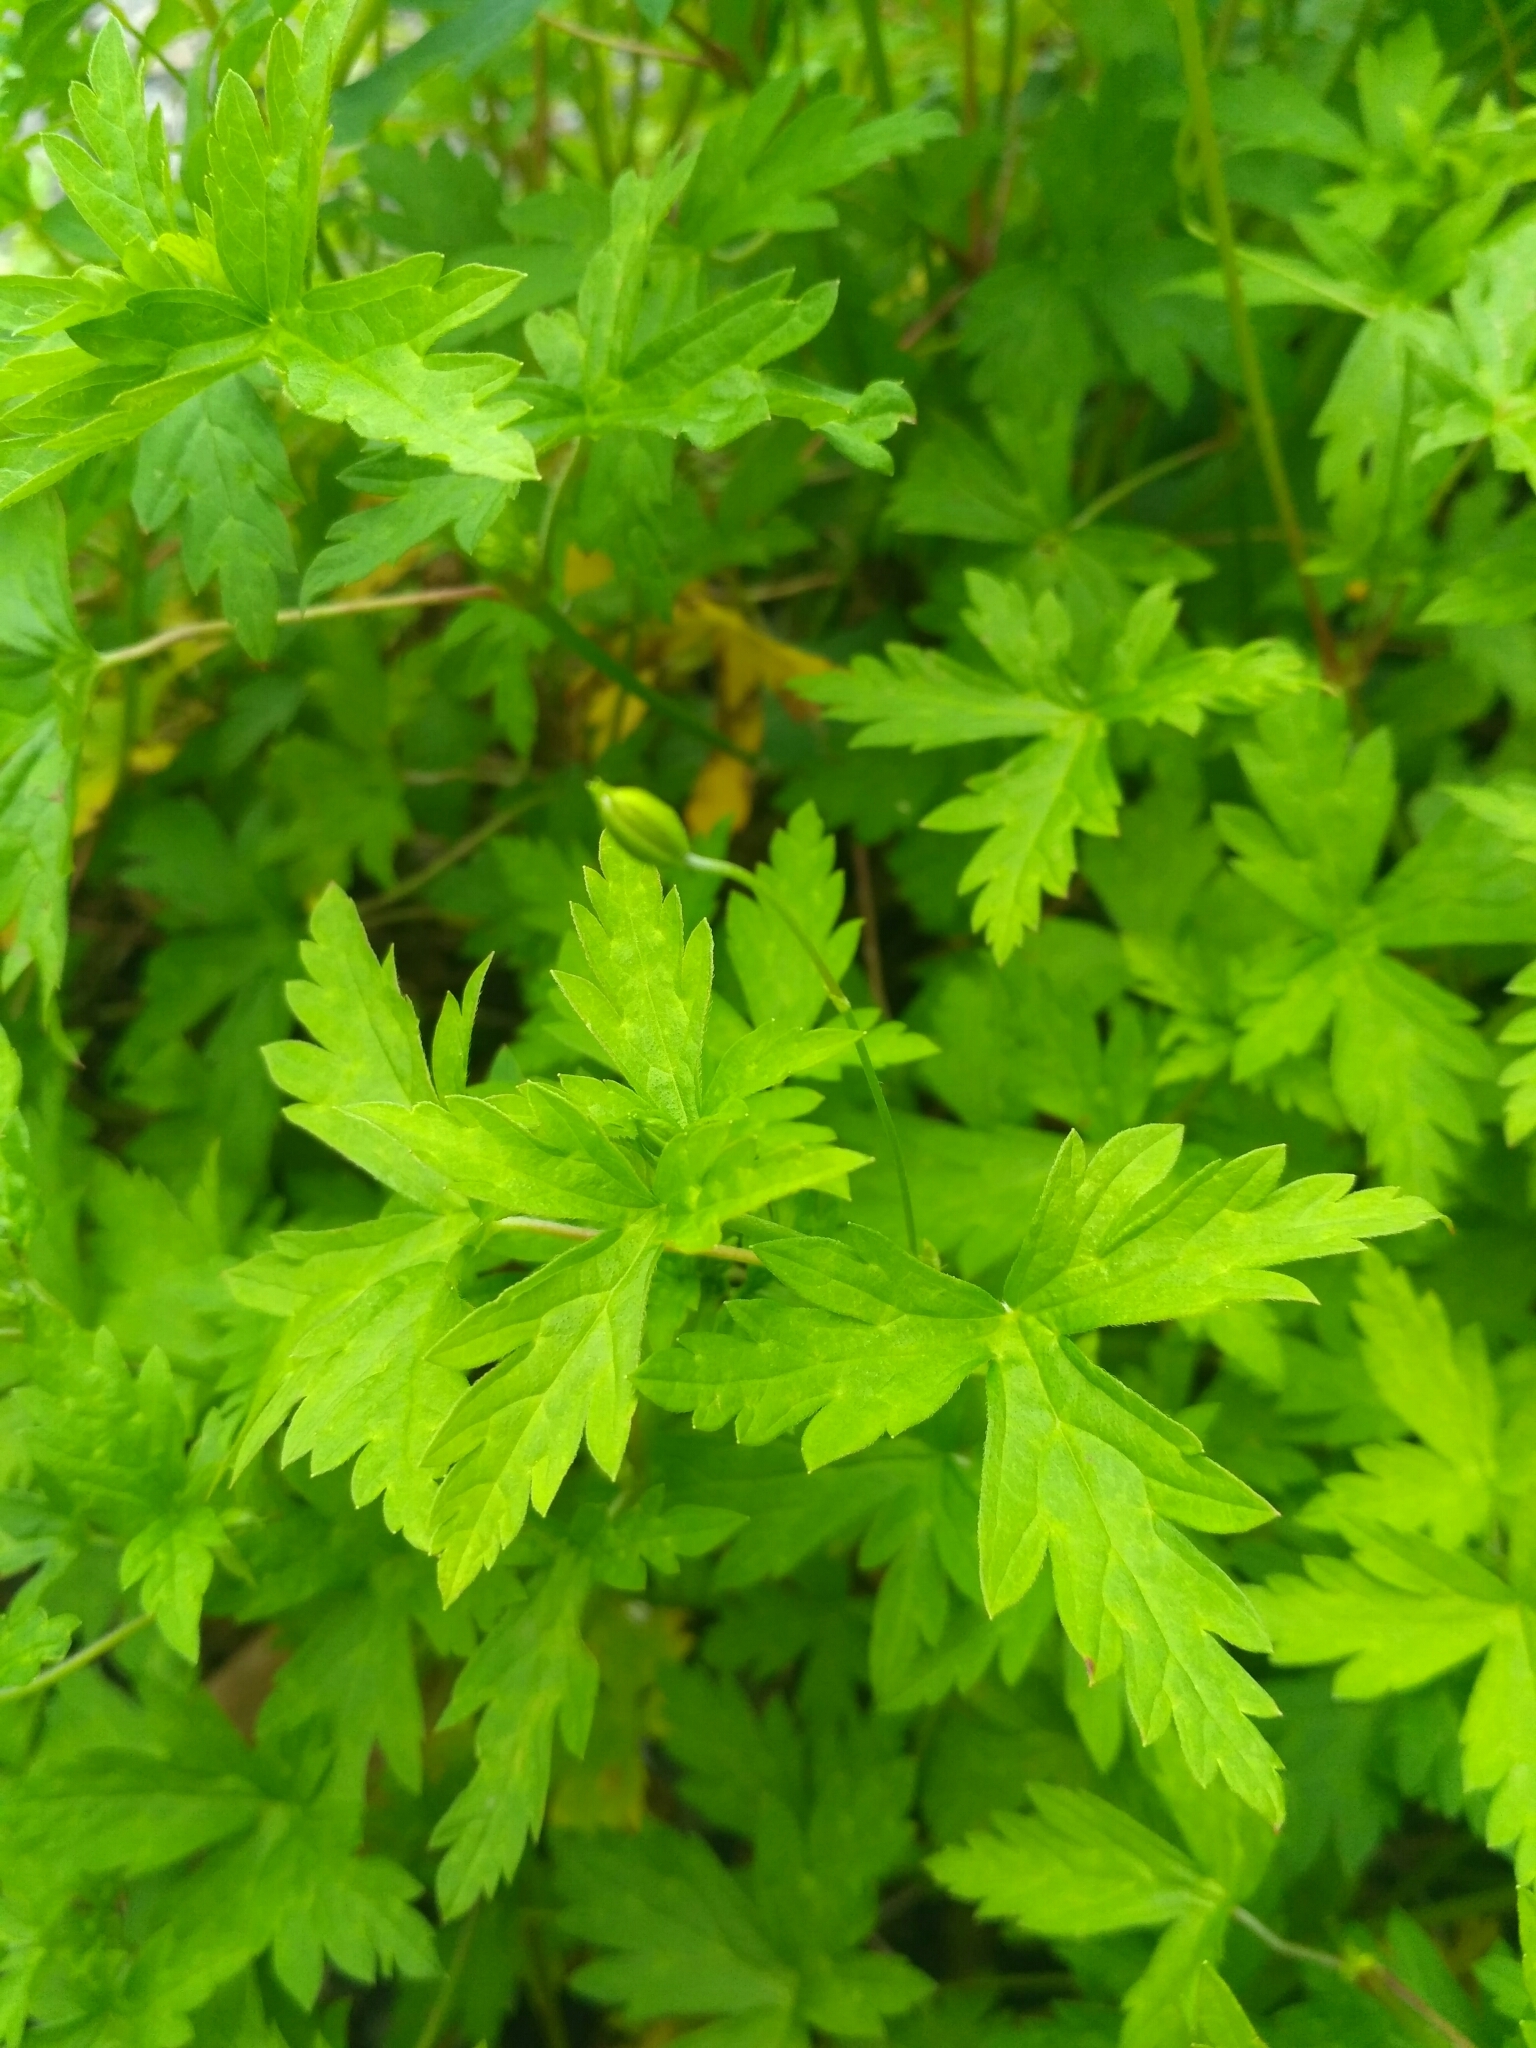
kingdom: Plantae
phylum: Tracheophyta
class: Magnoliopsida
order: Geraniales
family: Geraniaceae
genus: Geranium
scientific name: Geranium sibiricum
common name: Siberian crane's-bill
